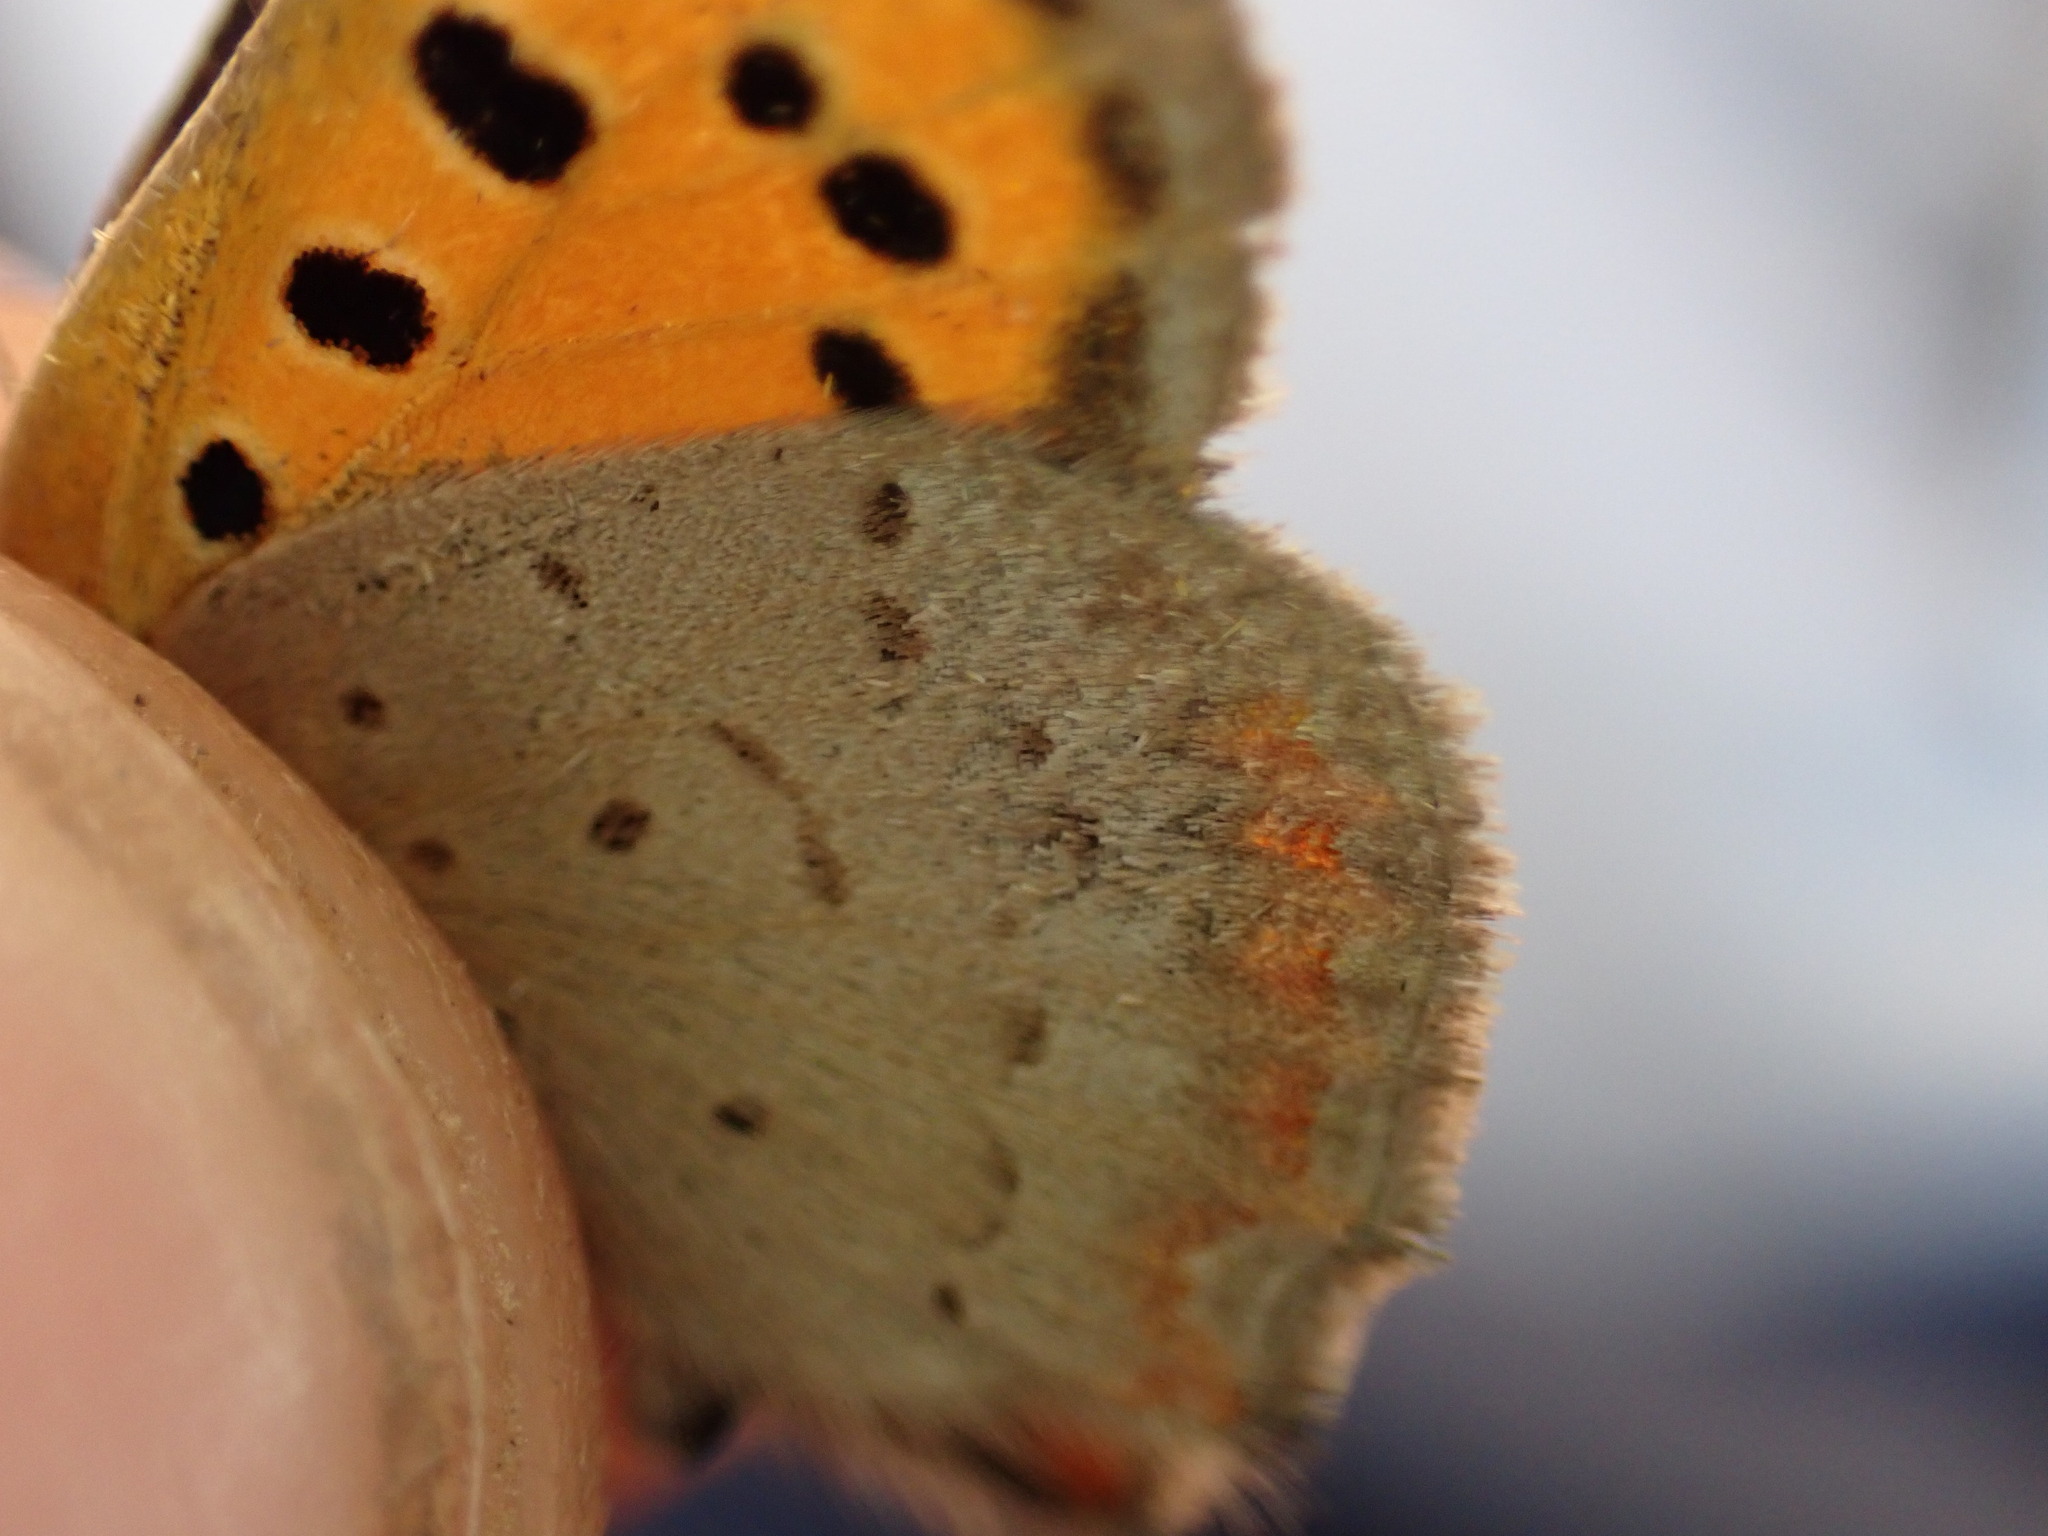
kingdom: Animalia
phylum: Arthropoda
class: Insecta
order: Lepidoptera
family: Lycaenidae
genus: Lycaena
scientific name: Lycaena phlaeas
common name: Small copper
